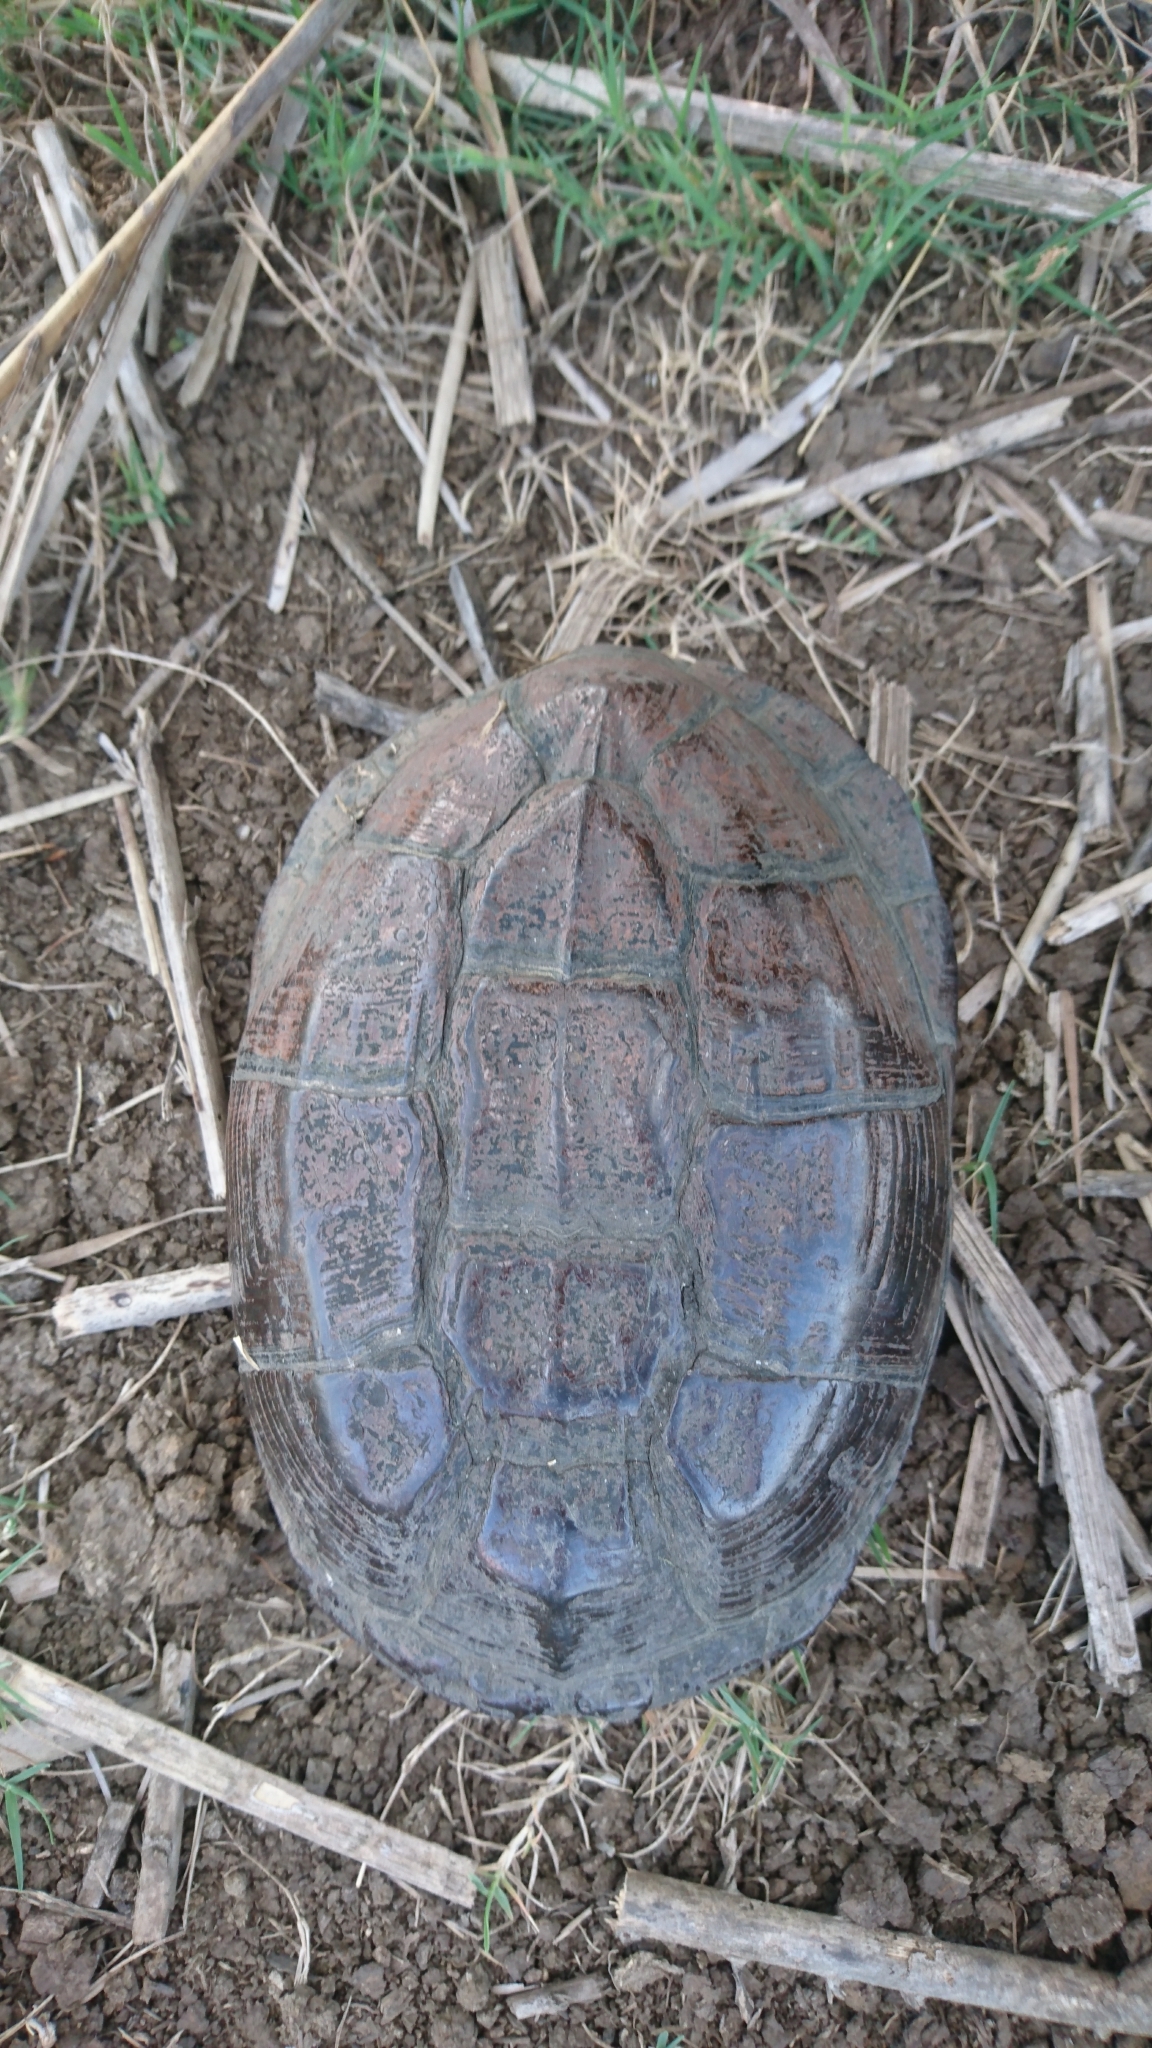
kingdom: Animalia
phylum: Chordata
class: Testudines
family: Pelomedusidae
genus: Pelusios
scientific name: Pelusios rhodesianus
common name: Variable mud turtle
